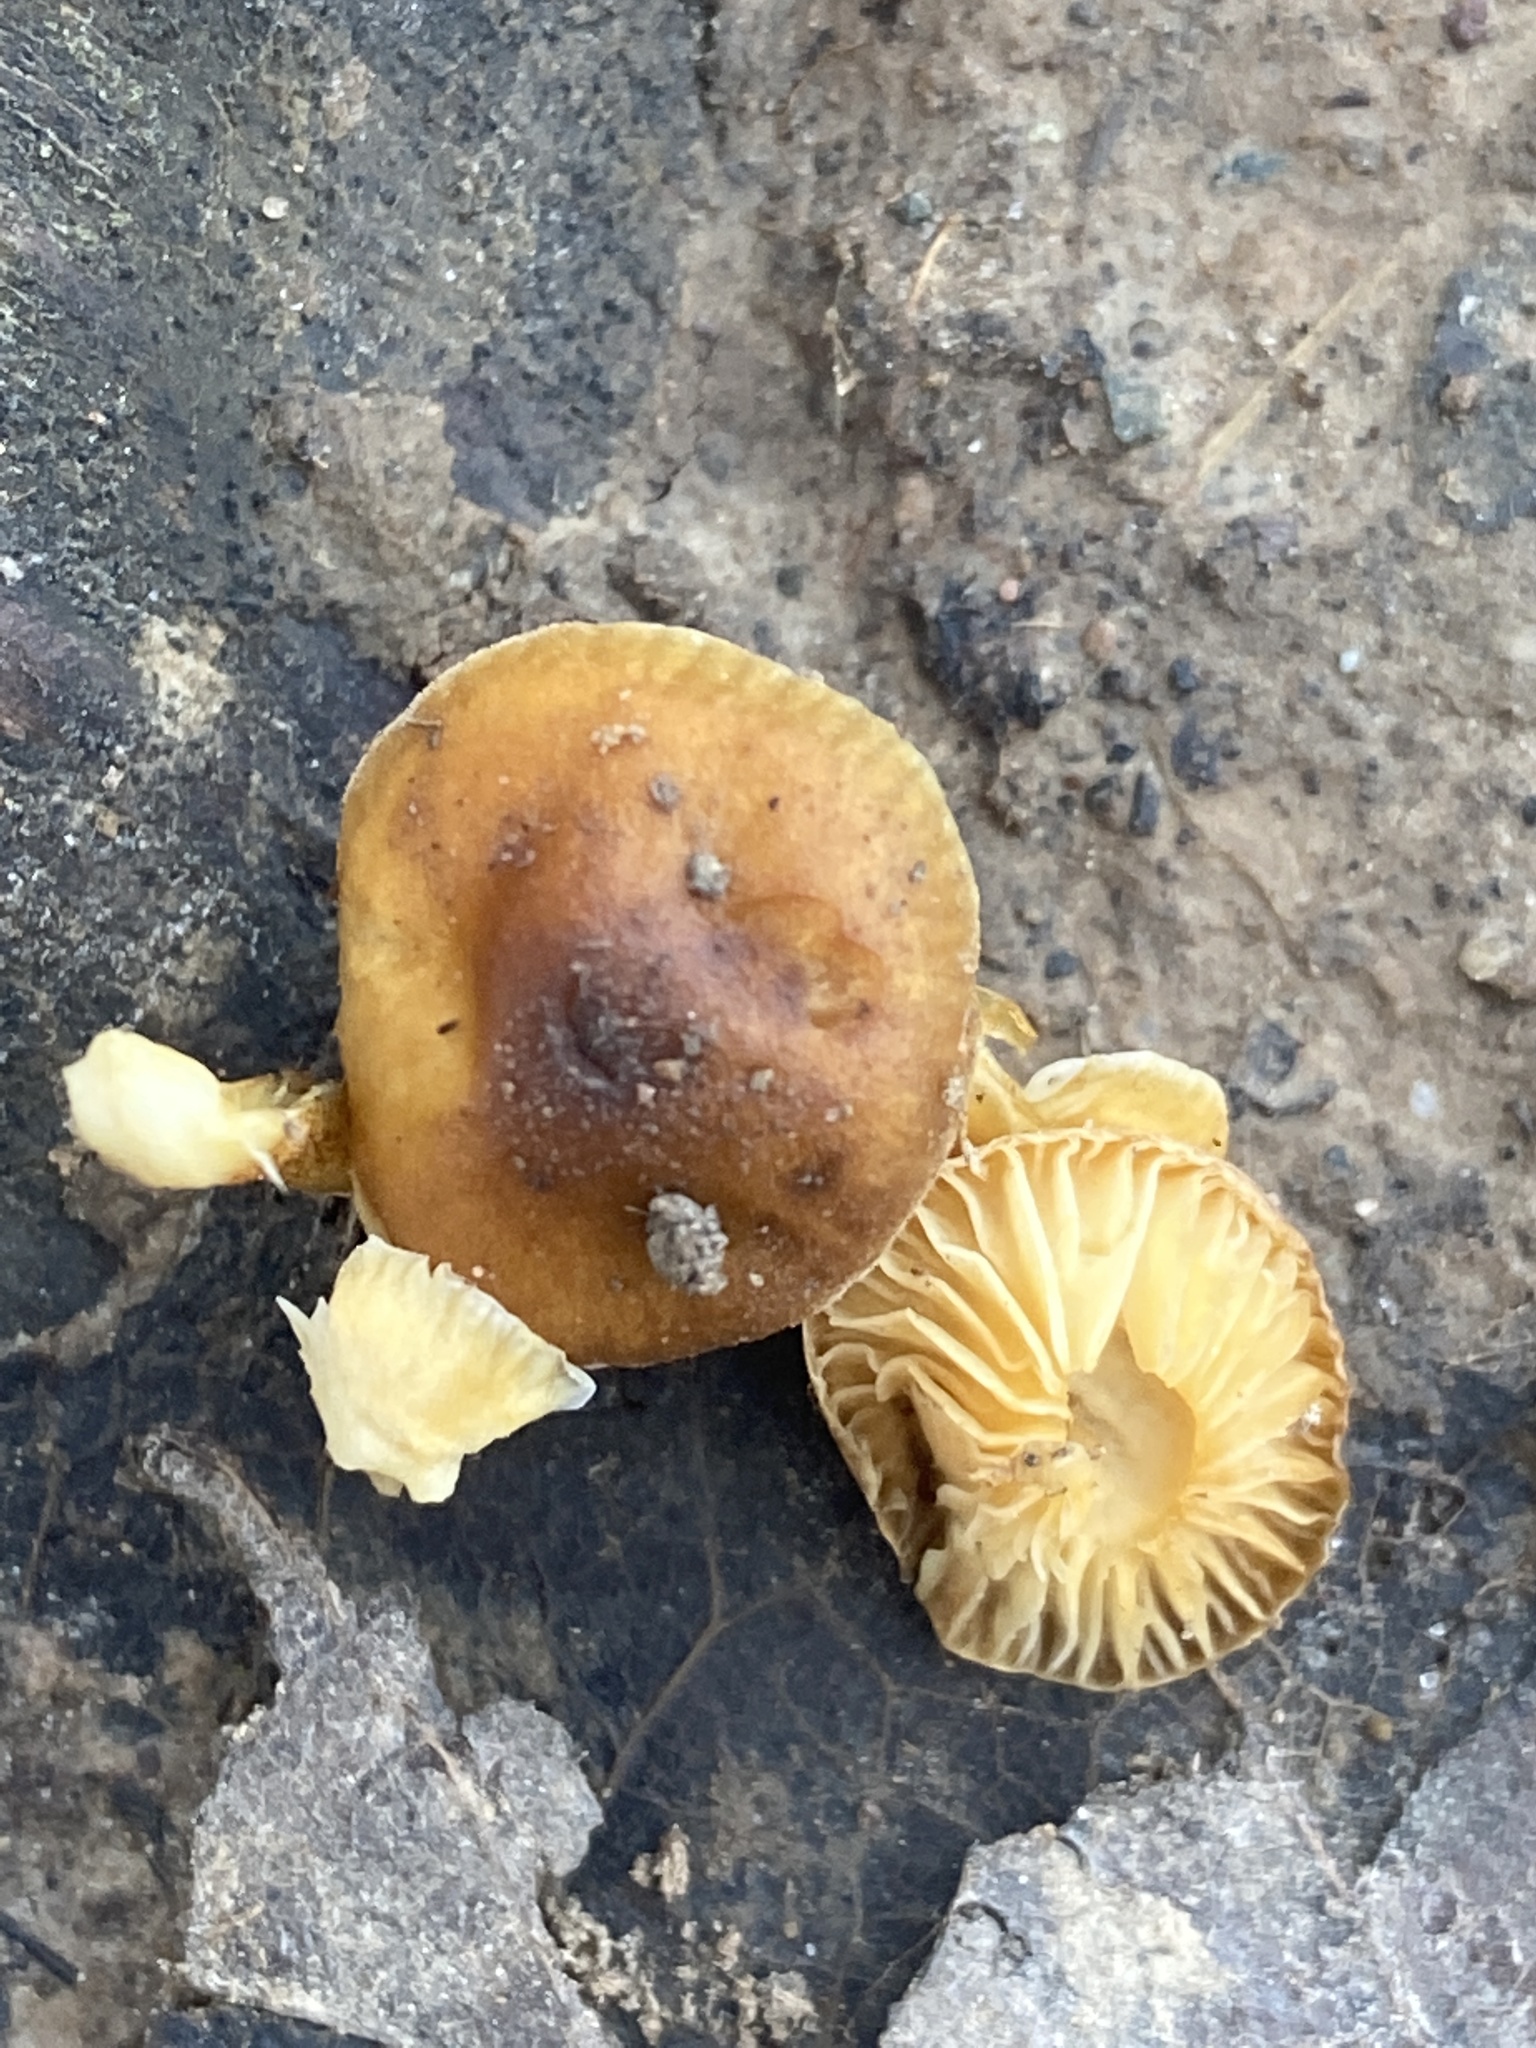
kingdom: Fungi
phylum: Basidiomycota
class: Agaricomycetes
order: Agaricales
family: Physalacriaceae
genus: Flammulina
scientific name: Flammulina
